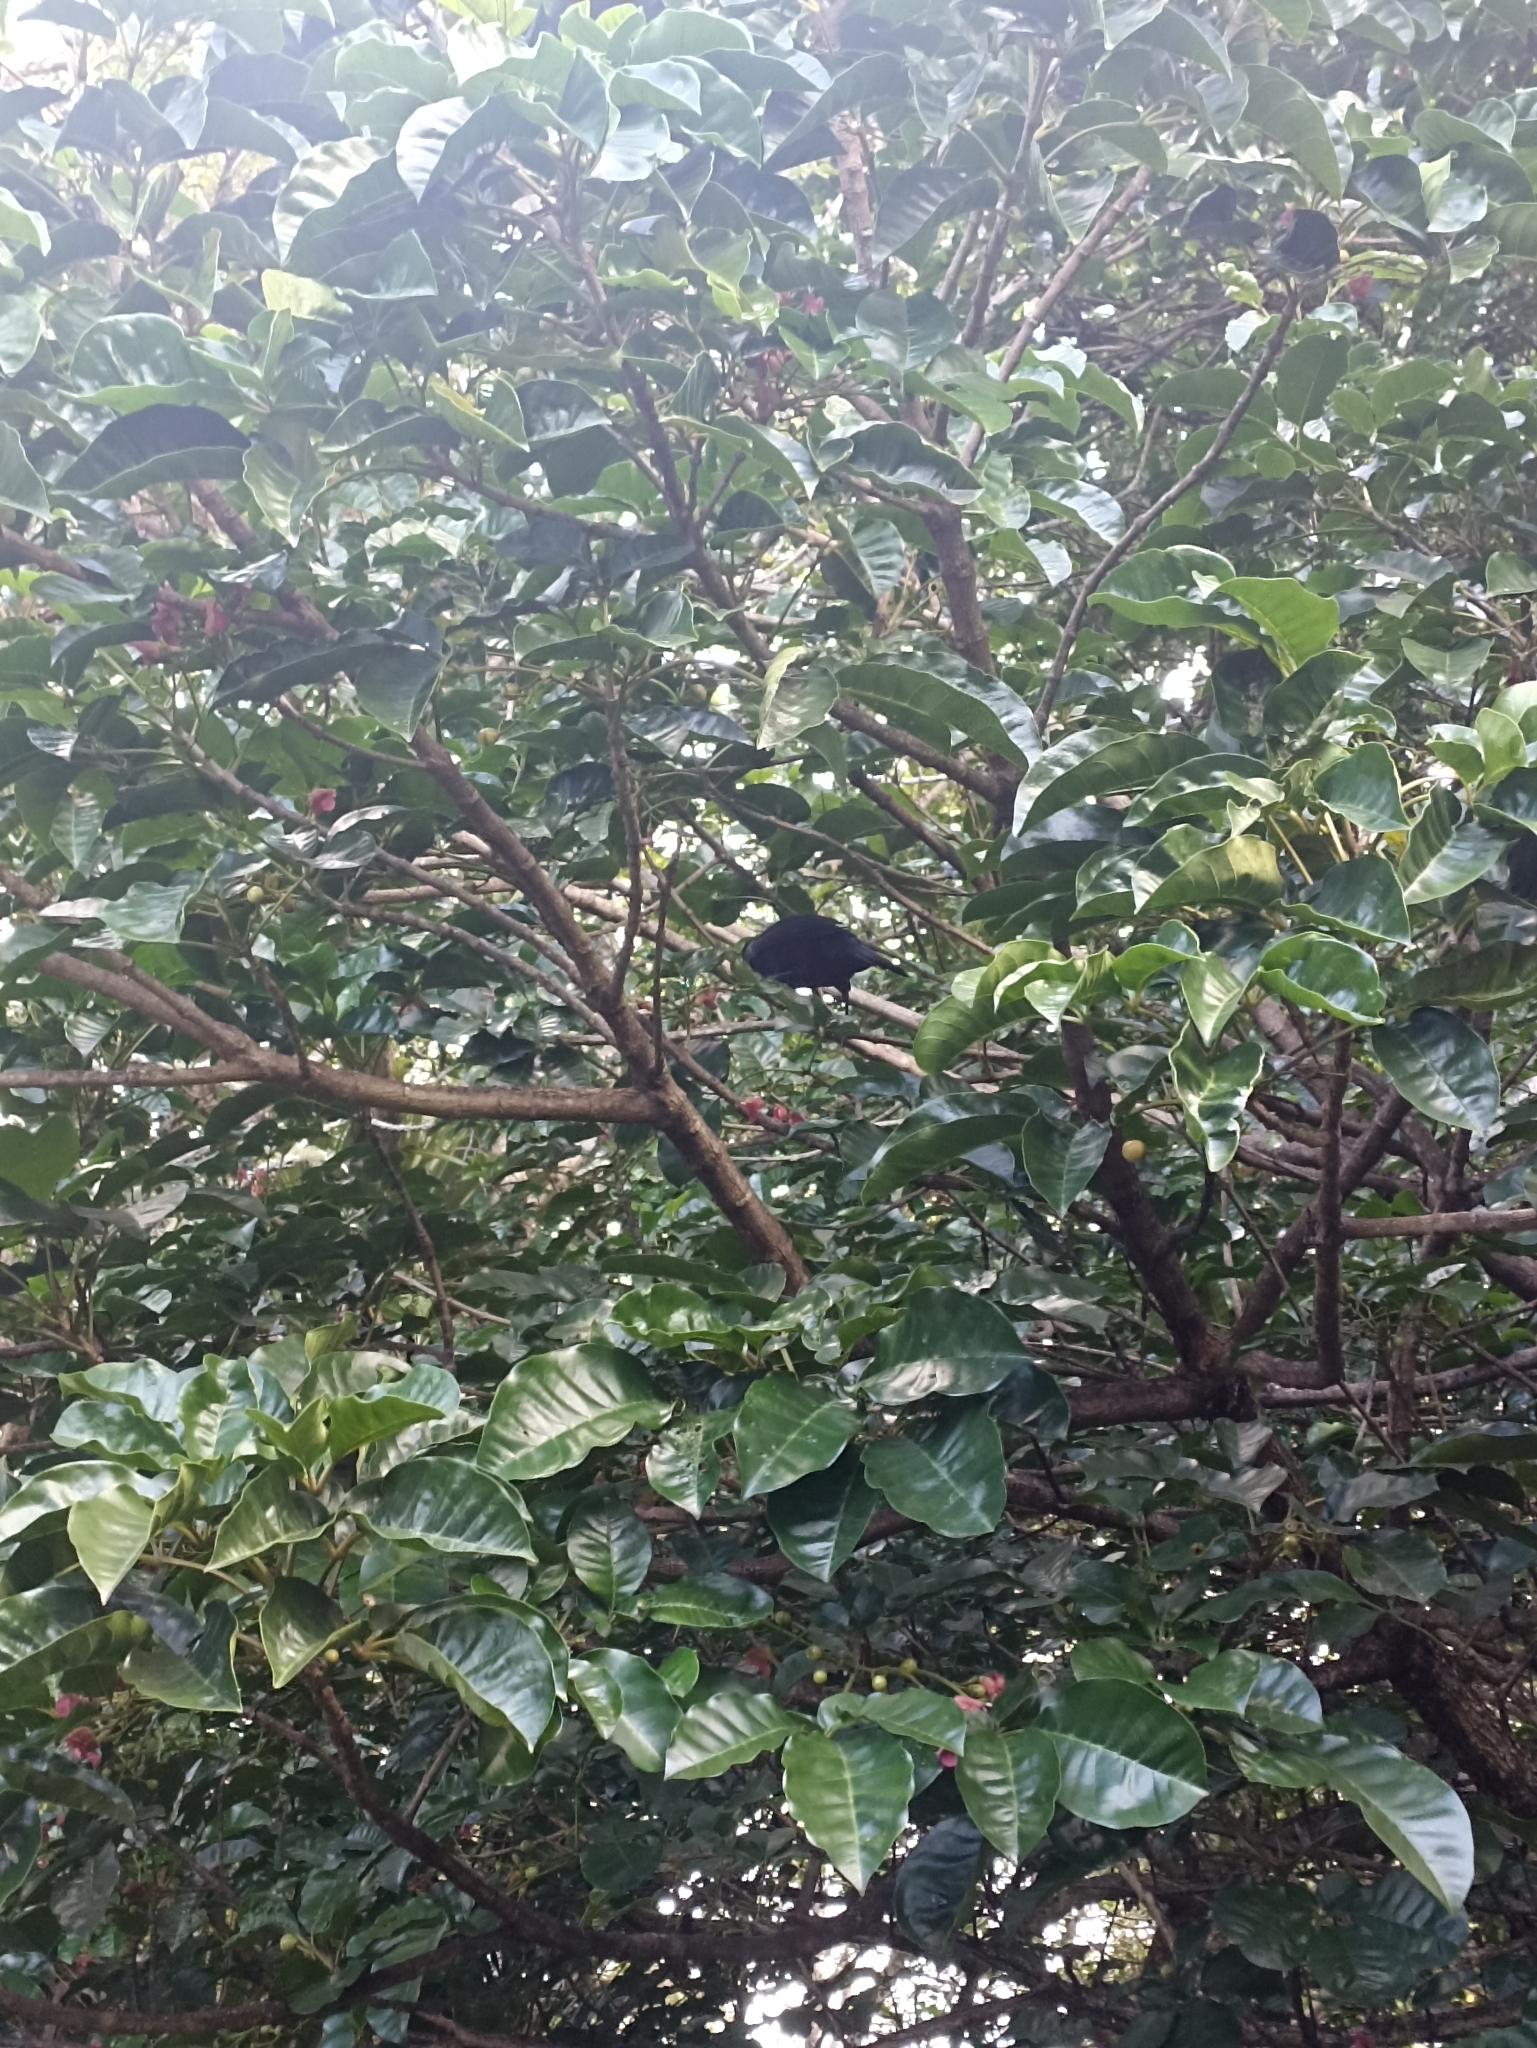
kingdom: Animalia
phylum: Chordata
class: Aves
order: Passeriformes
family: Meliphagidae
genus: Prosthemadera
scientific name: Prosthemadera novaeseelandiae
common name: Tui
